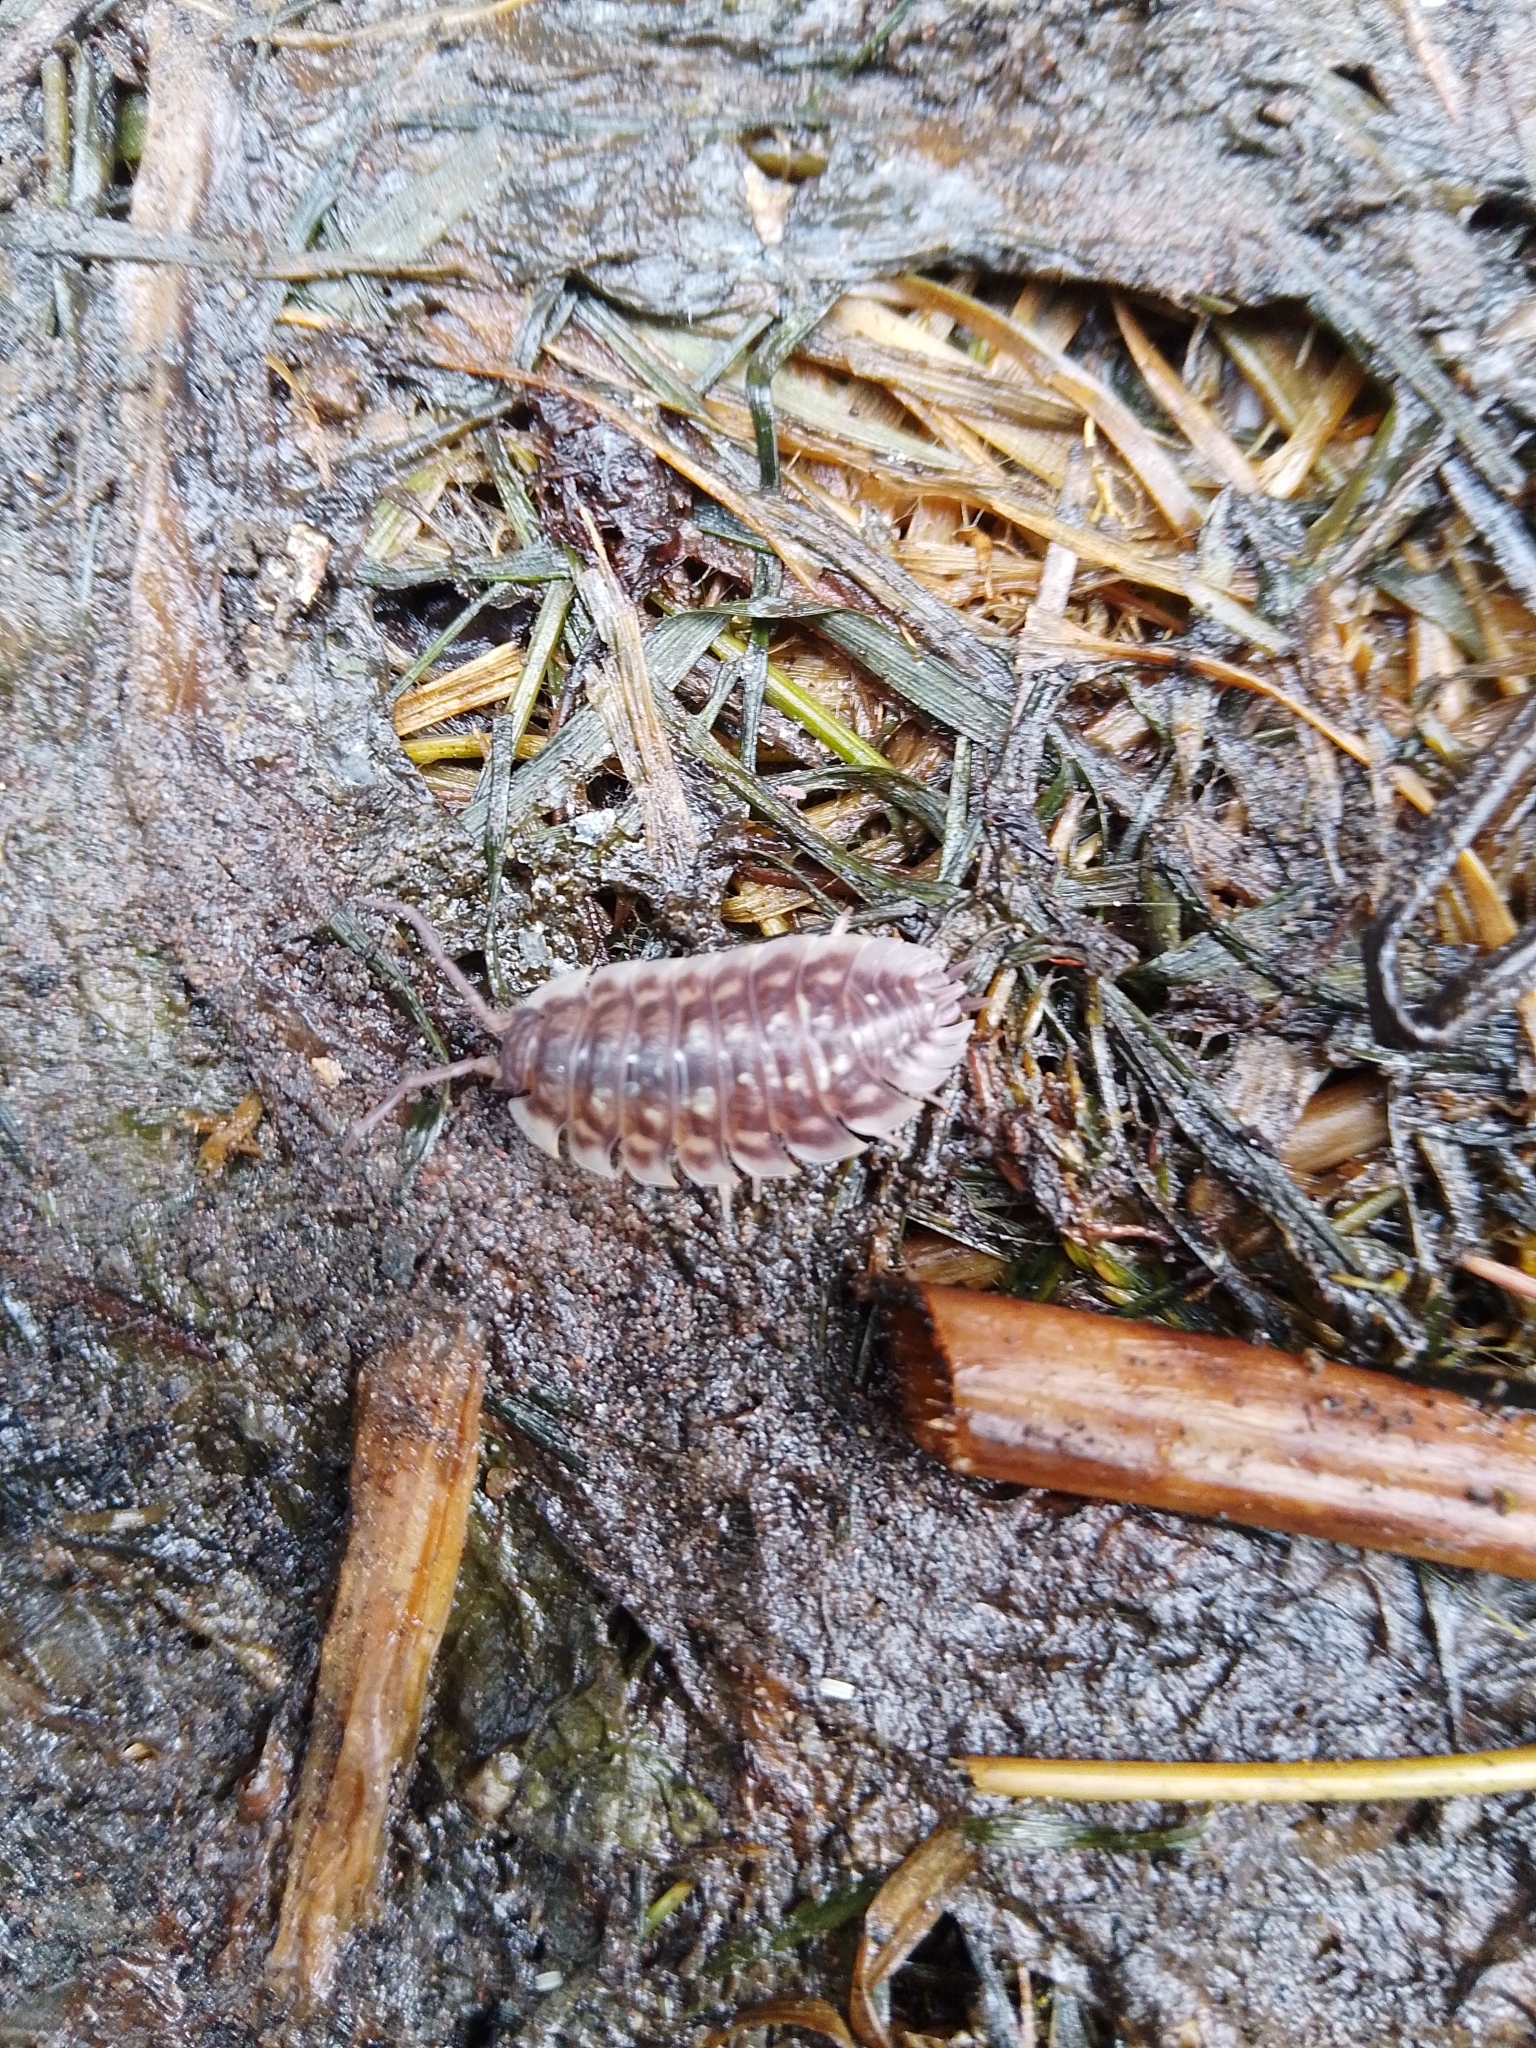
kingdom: Animalia
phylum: Arthropoda
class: Malacostraca
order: Isopoda
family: Oniscidae
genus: Oniscus
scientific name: Oniscus asellus
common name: Common shiny woodlouse
